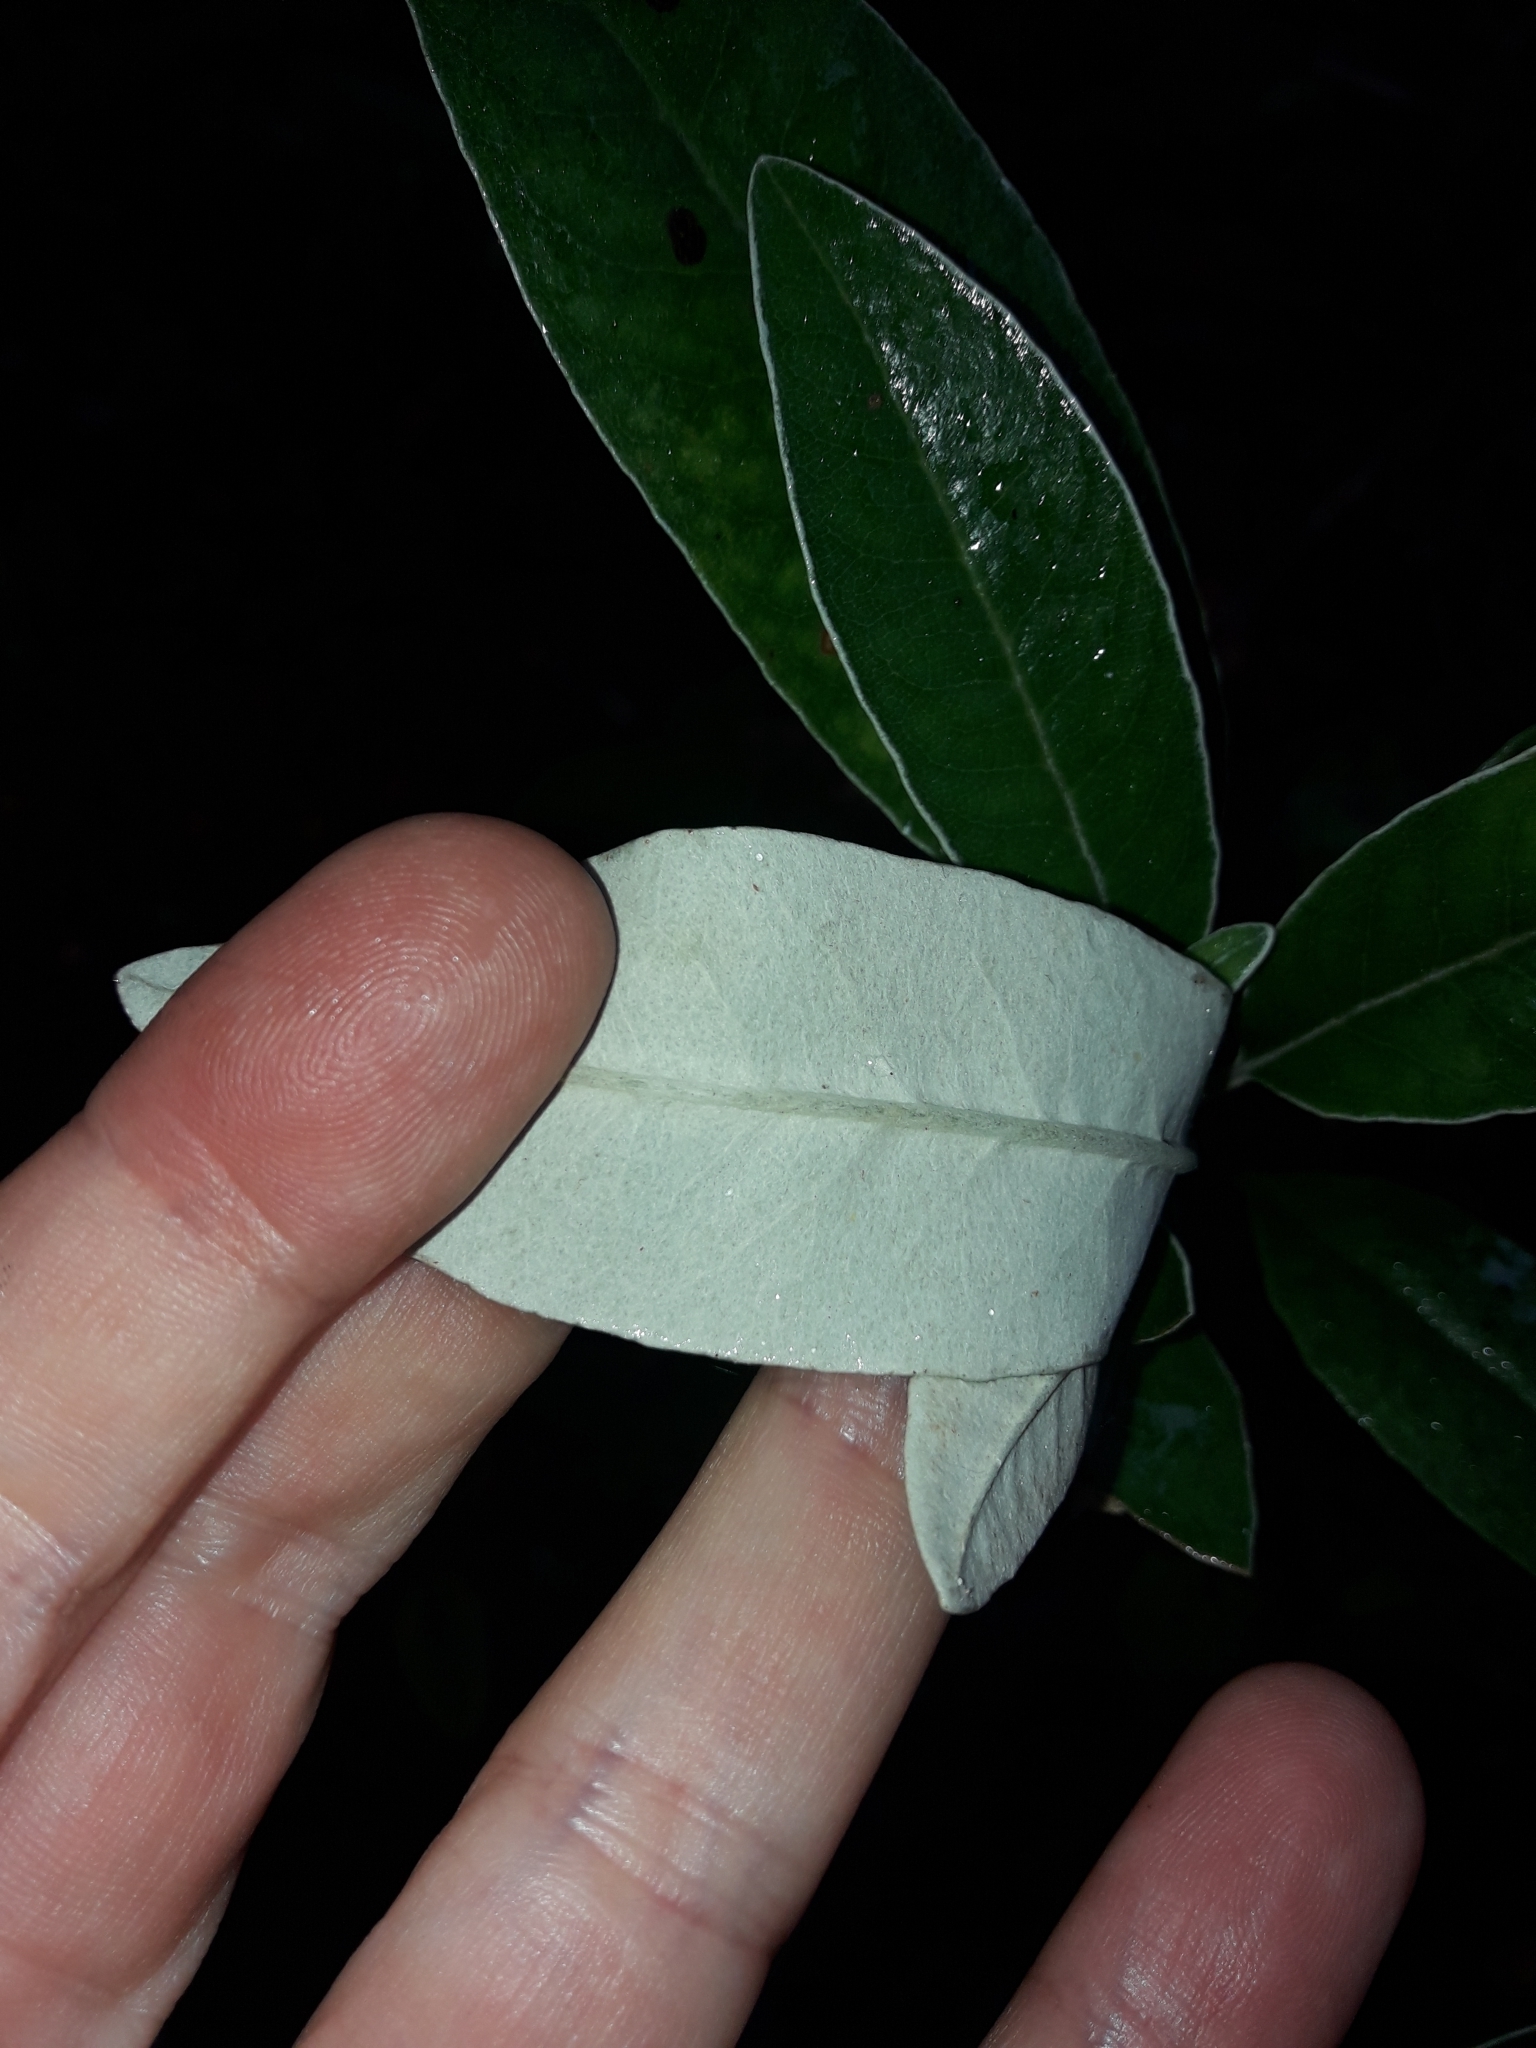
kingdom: Plantae
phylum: Tracheophyta
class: Magnoliopsida
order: Asterales
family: Asteraceae
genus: Brachyglottis
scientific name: Brachyglottis laxifolia
